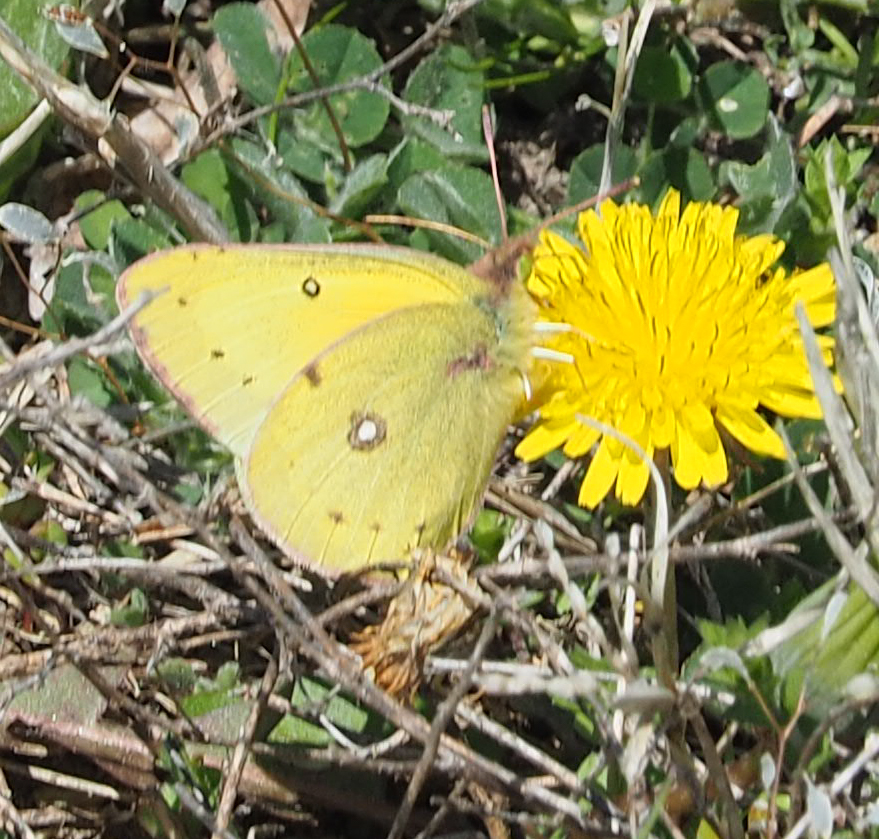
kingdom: Animalia
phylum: Arthropoda
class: Insecta
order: Lepidoptera
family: Pieridae
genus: Colias
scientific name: Colias eurytheme
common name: Alfalfa butterfly
